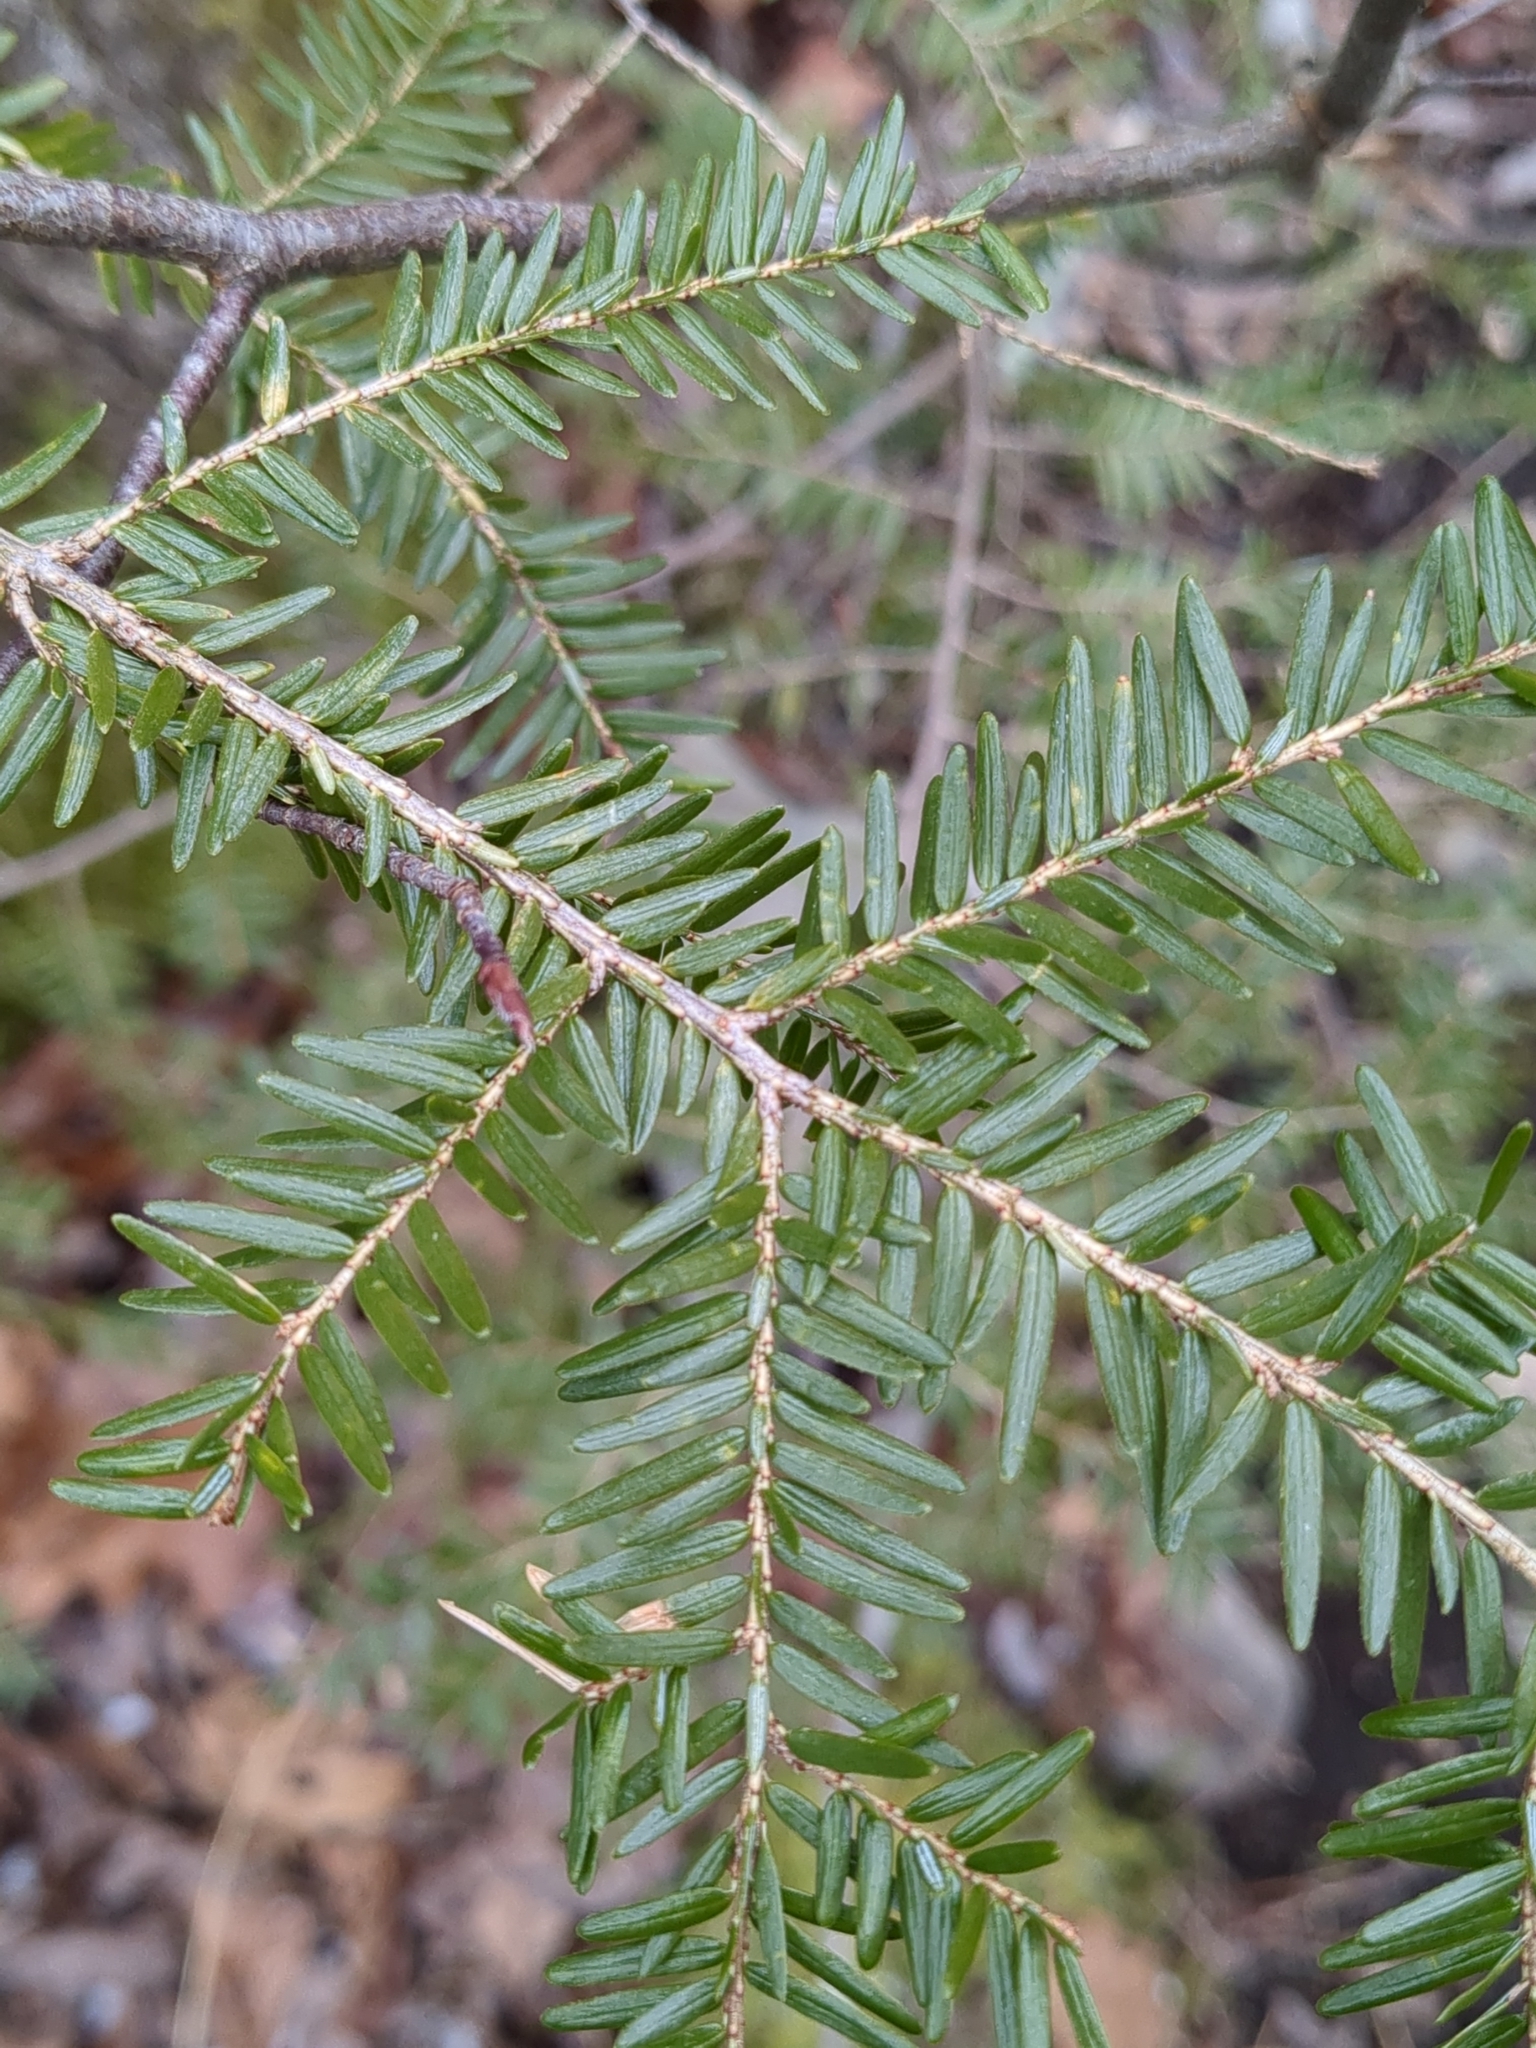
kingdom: Plantae
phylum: Tracheophyta
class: Pinopsida
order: Pinales
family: Pinaceae
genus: Tsuga
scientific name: Tsuga canadensis
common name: Eastern hemlock
